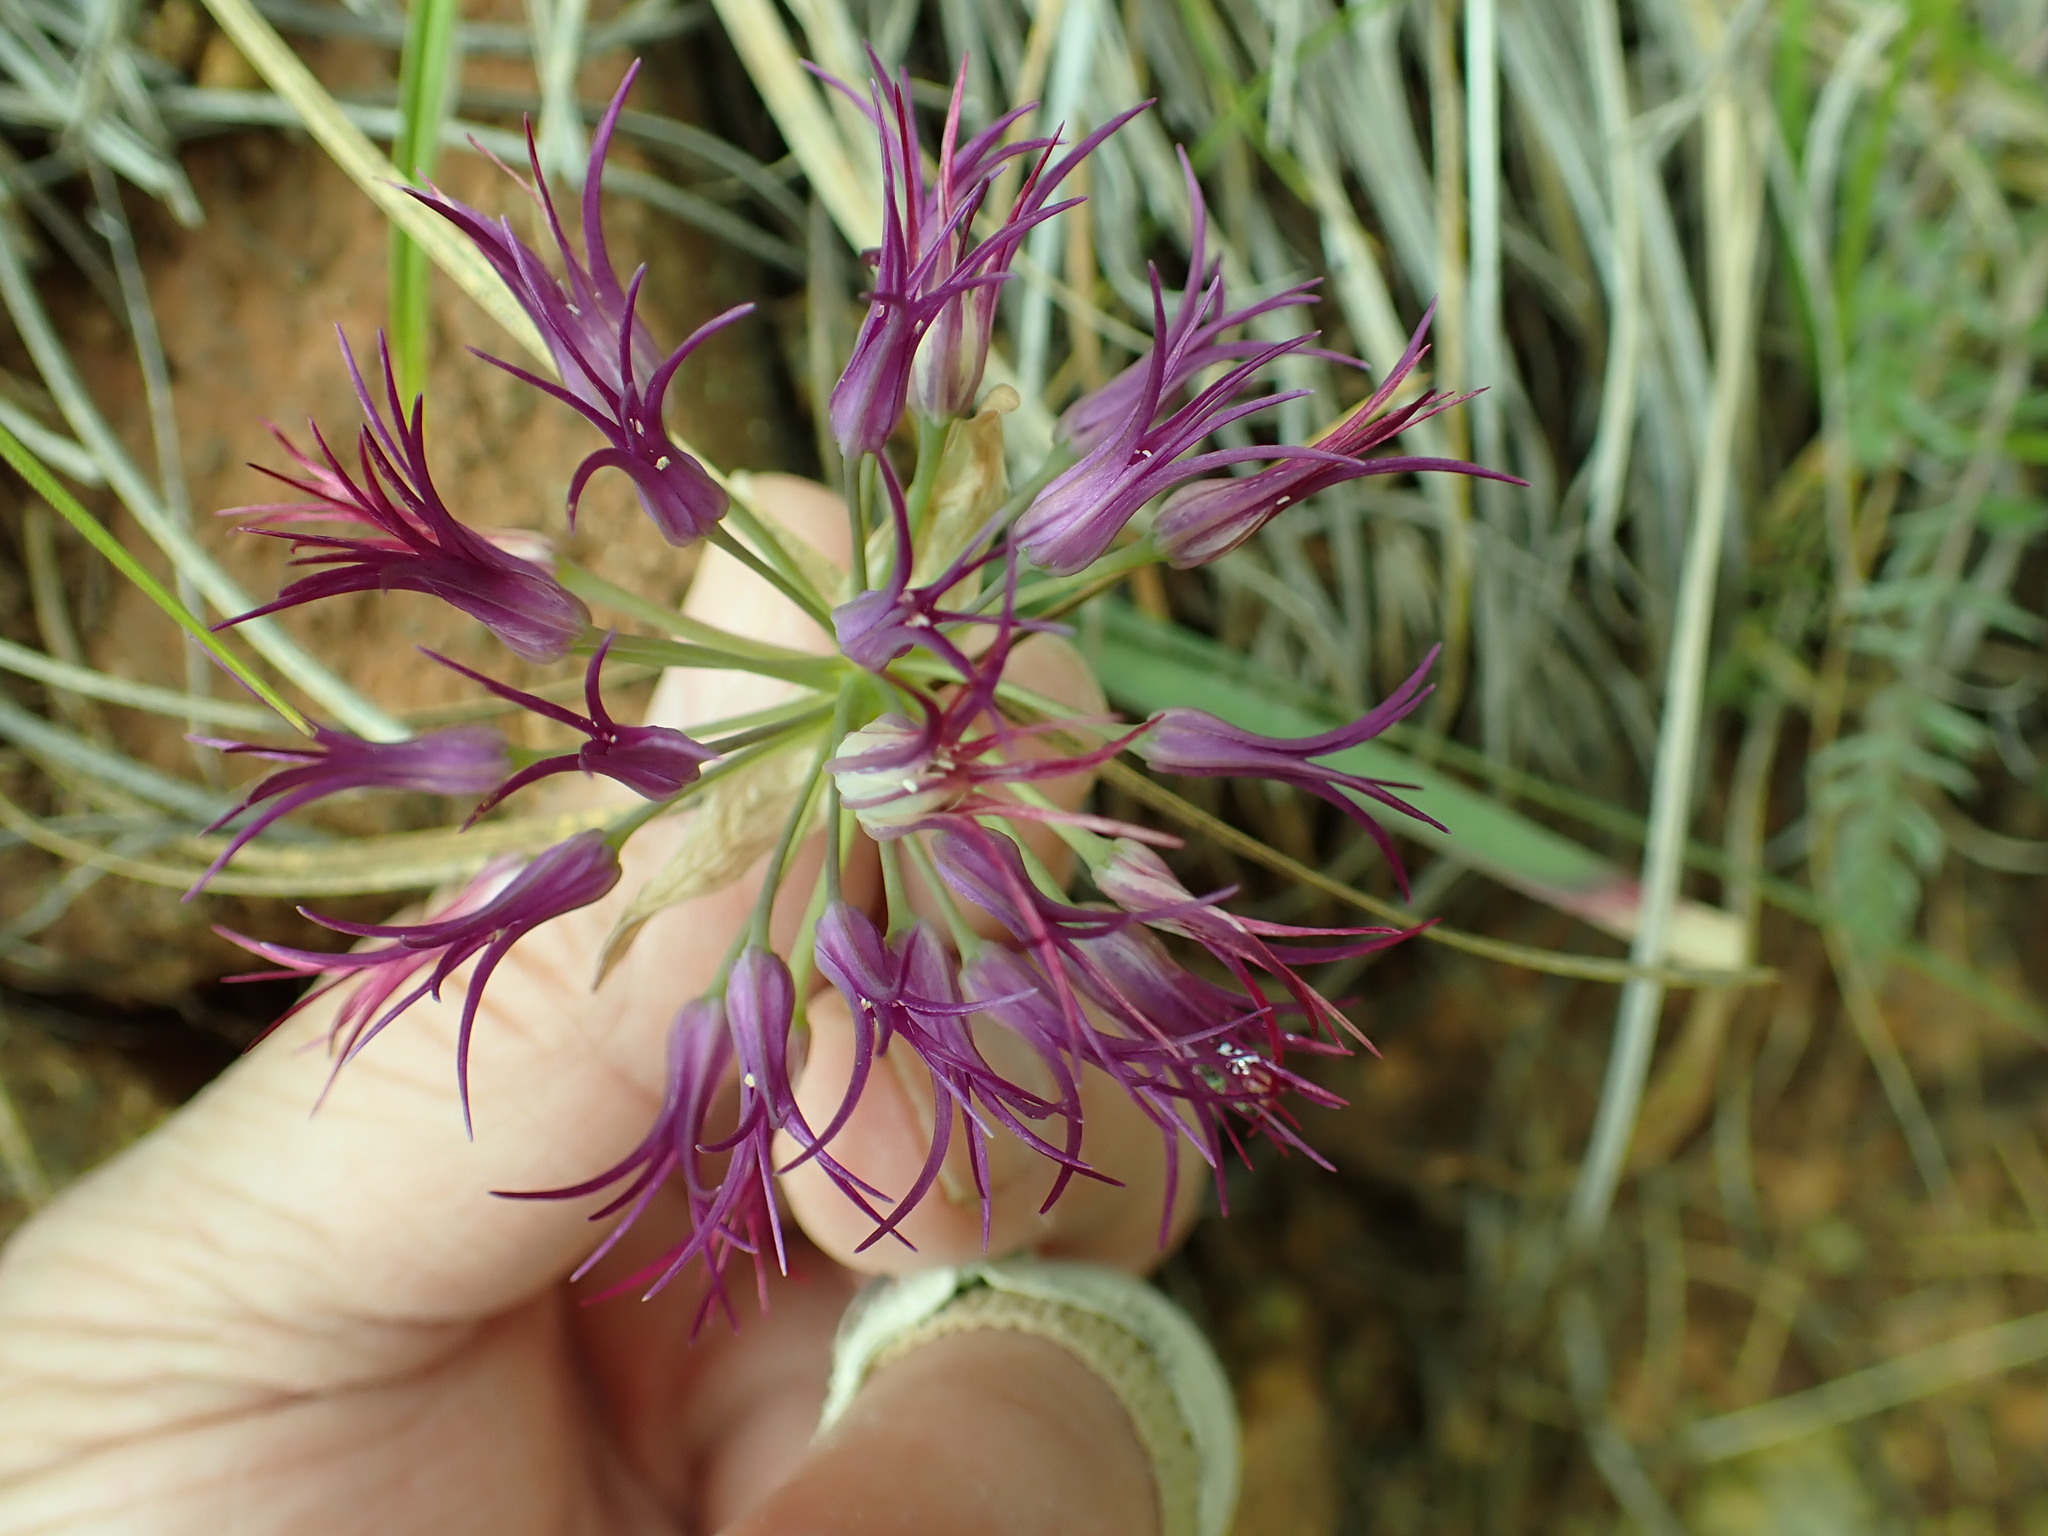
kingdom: Plantae
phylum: Tracheophyta
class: Liliopsida
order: Asparagales
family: Amaryllidaceae
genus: Allium
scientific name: Allium falcifolium
